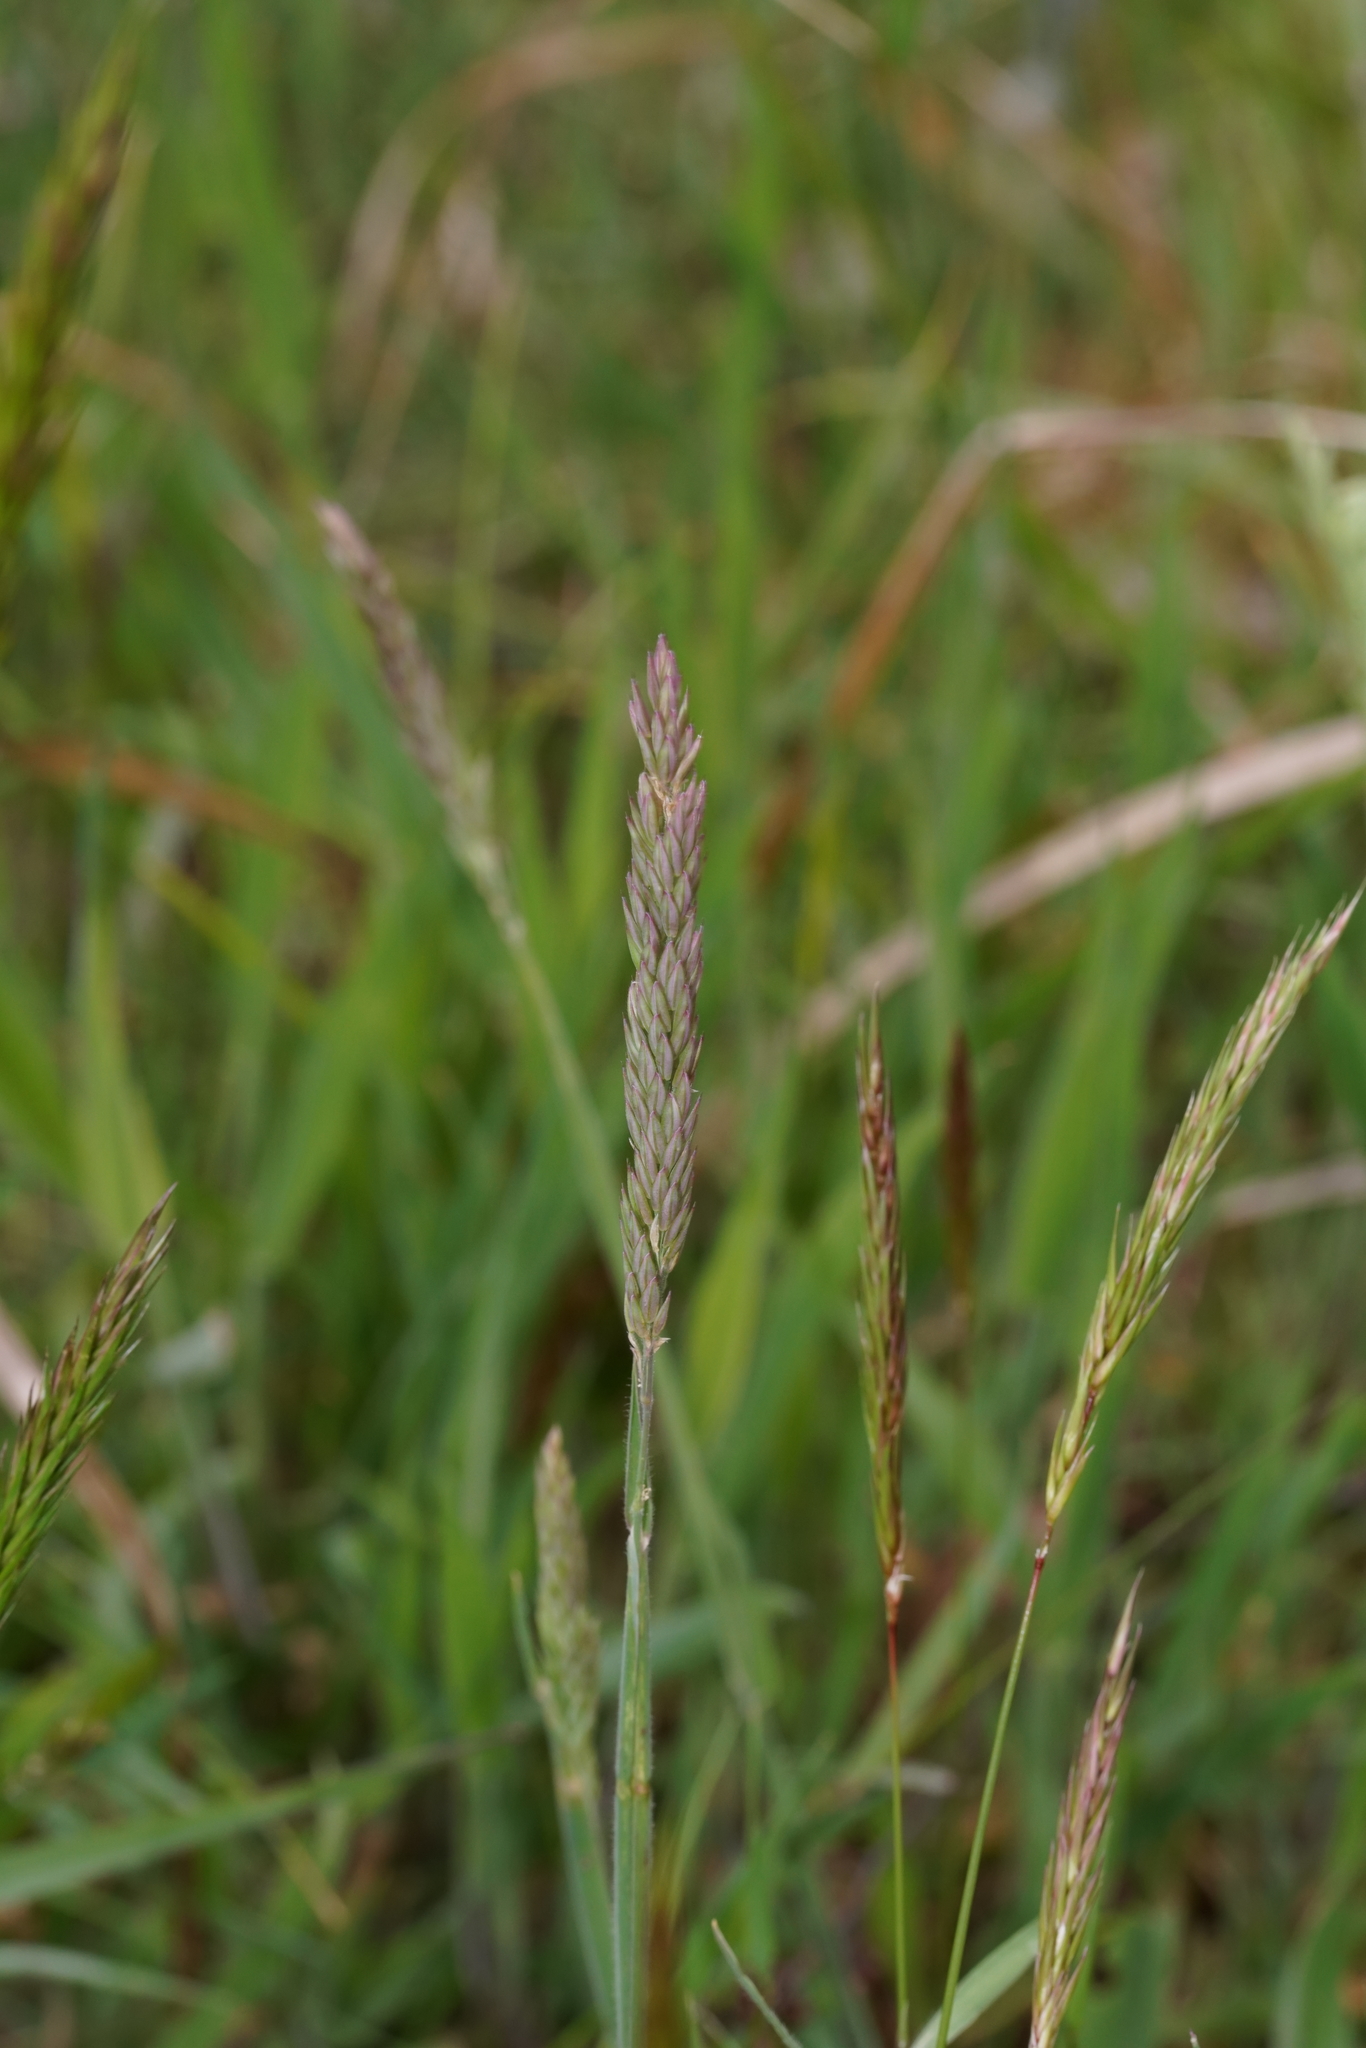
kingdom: Plantae
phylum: Tracheophyta
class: Liliopsida
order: Poales
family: Poaceae
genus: Holcus
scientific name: Holcus lanatus
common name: Yorkshire-fog
